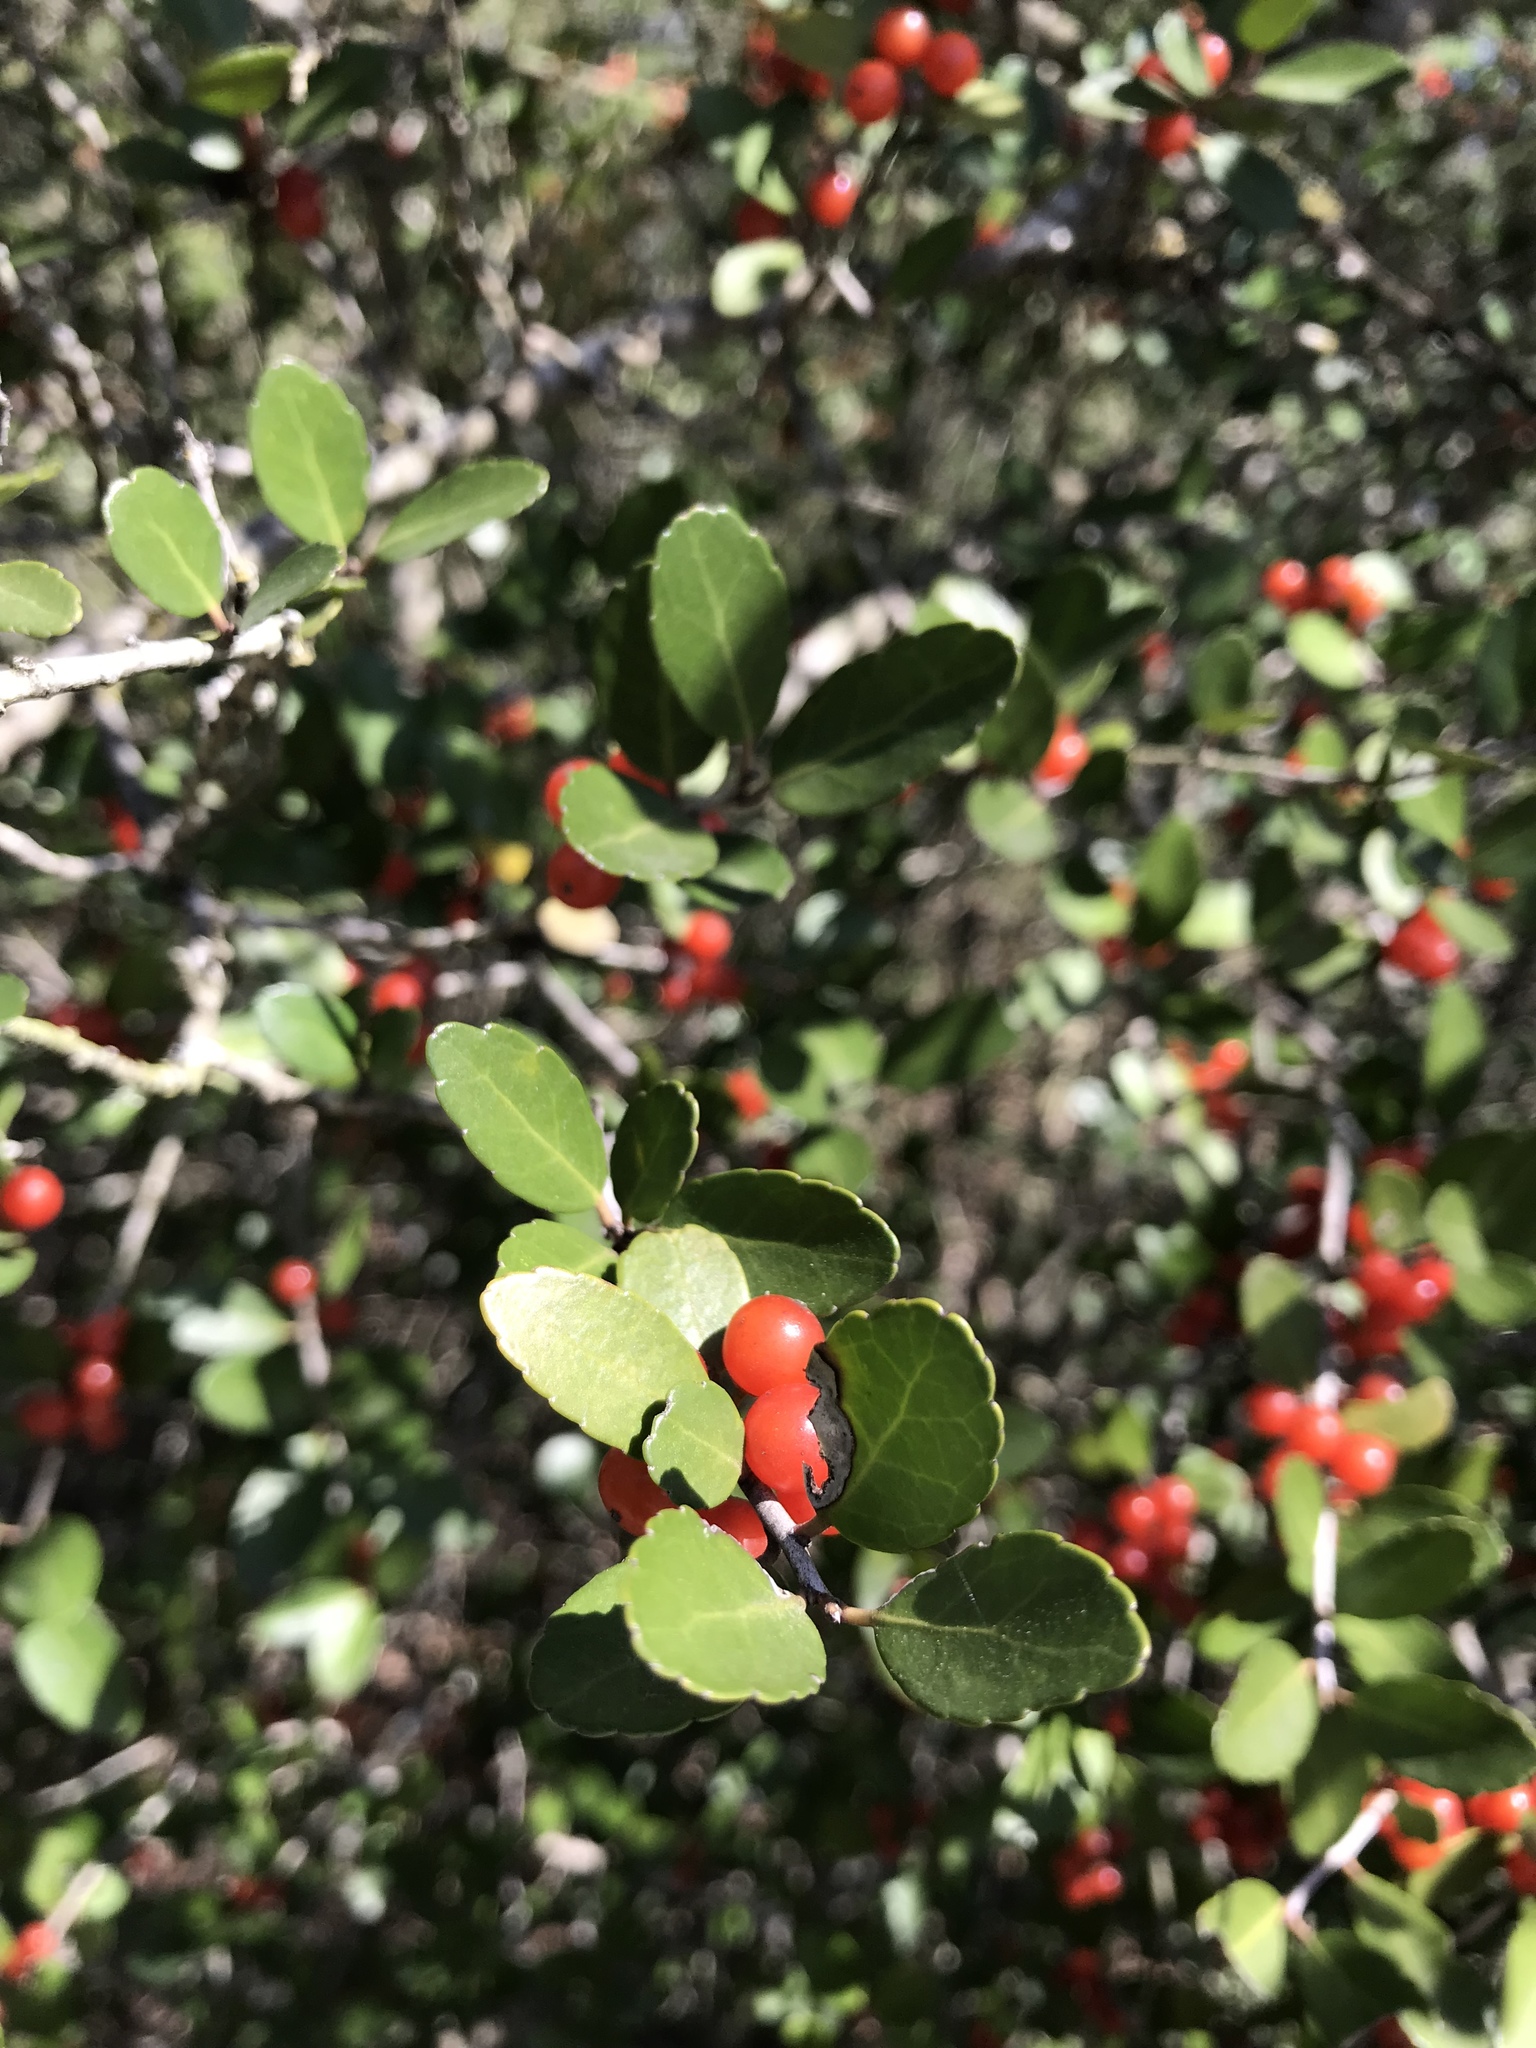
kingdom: Plantae
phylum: Tracheophyta
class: Magnoliopsida
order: Aquifoliales
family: Aquifoliaceae
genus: Ilex
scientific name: Ilex vomitoria
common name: Yaupon holly
